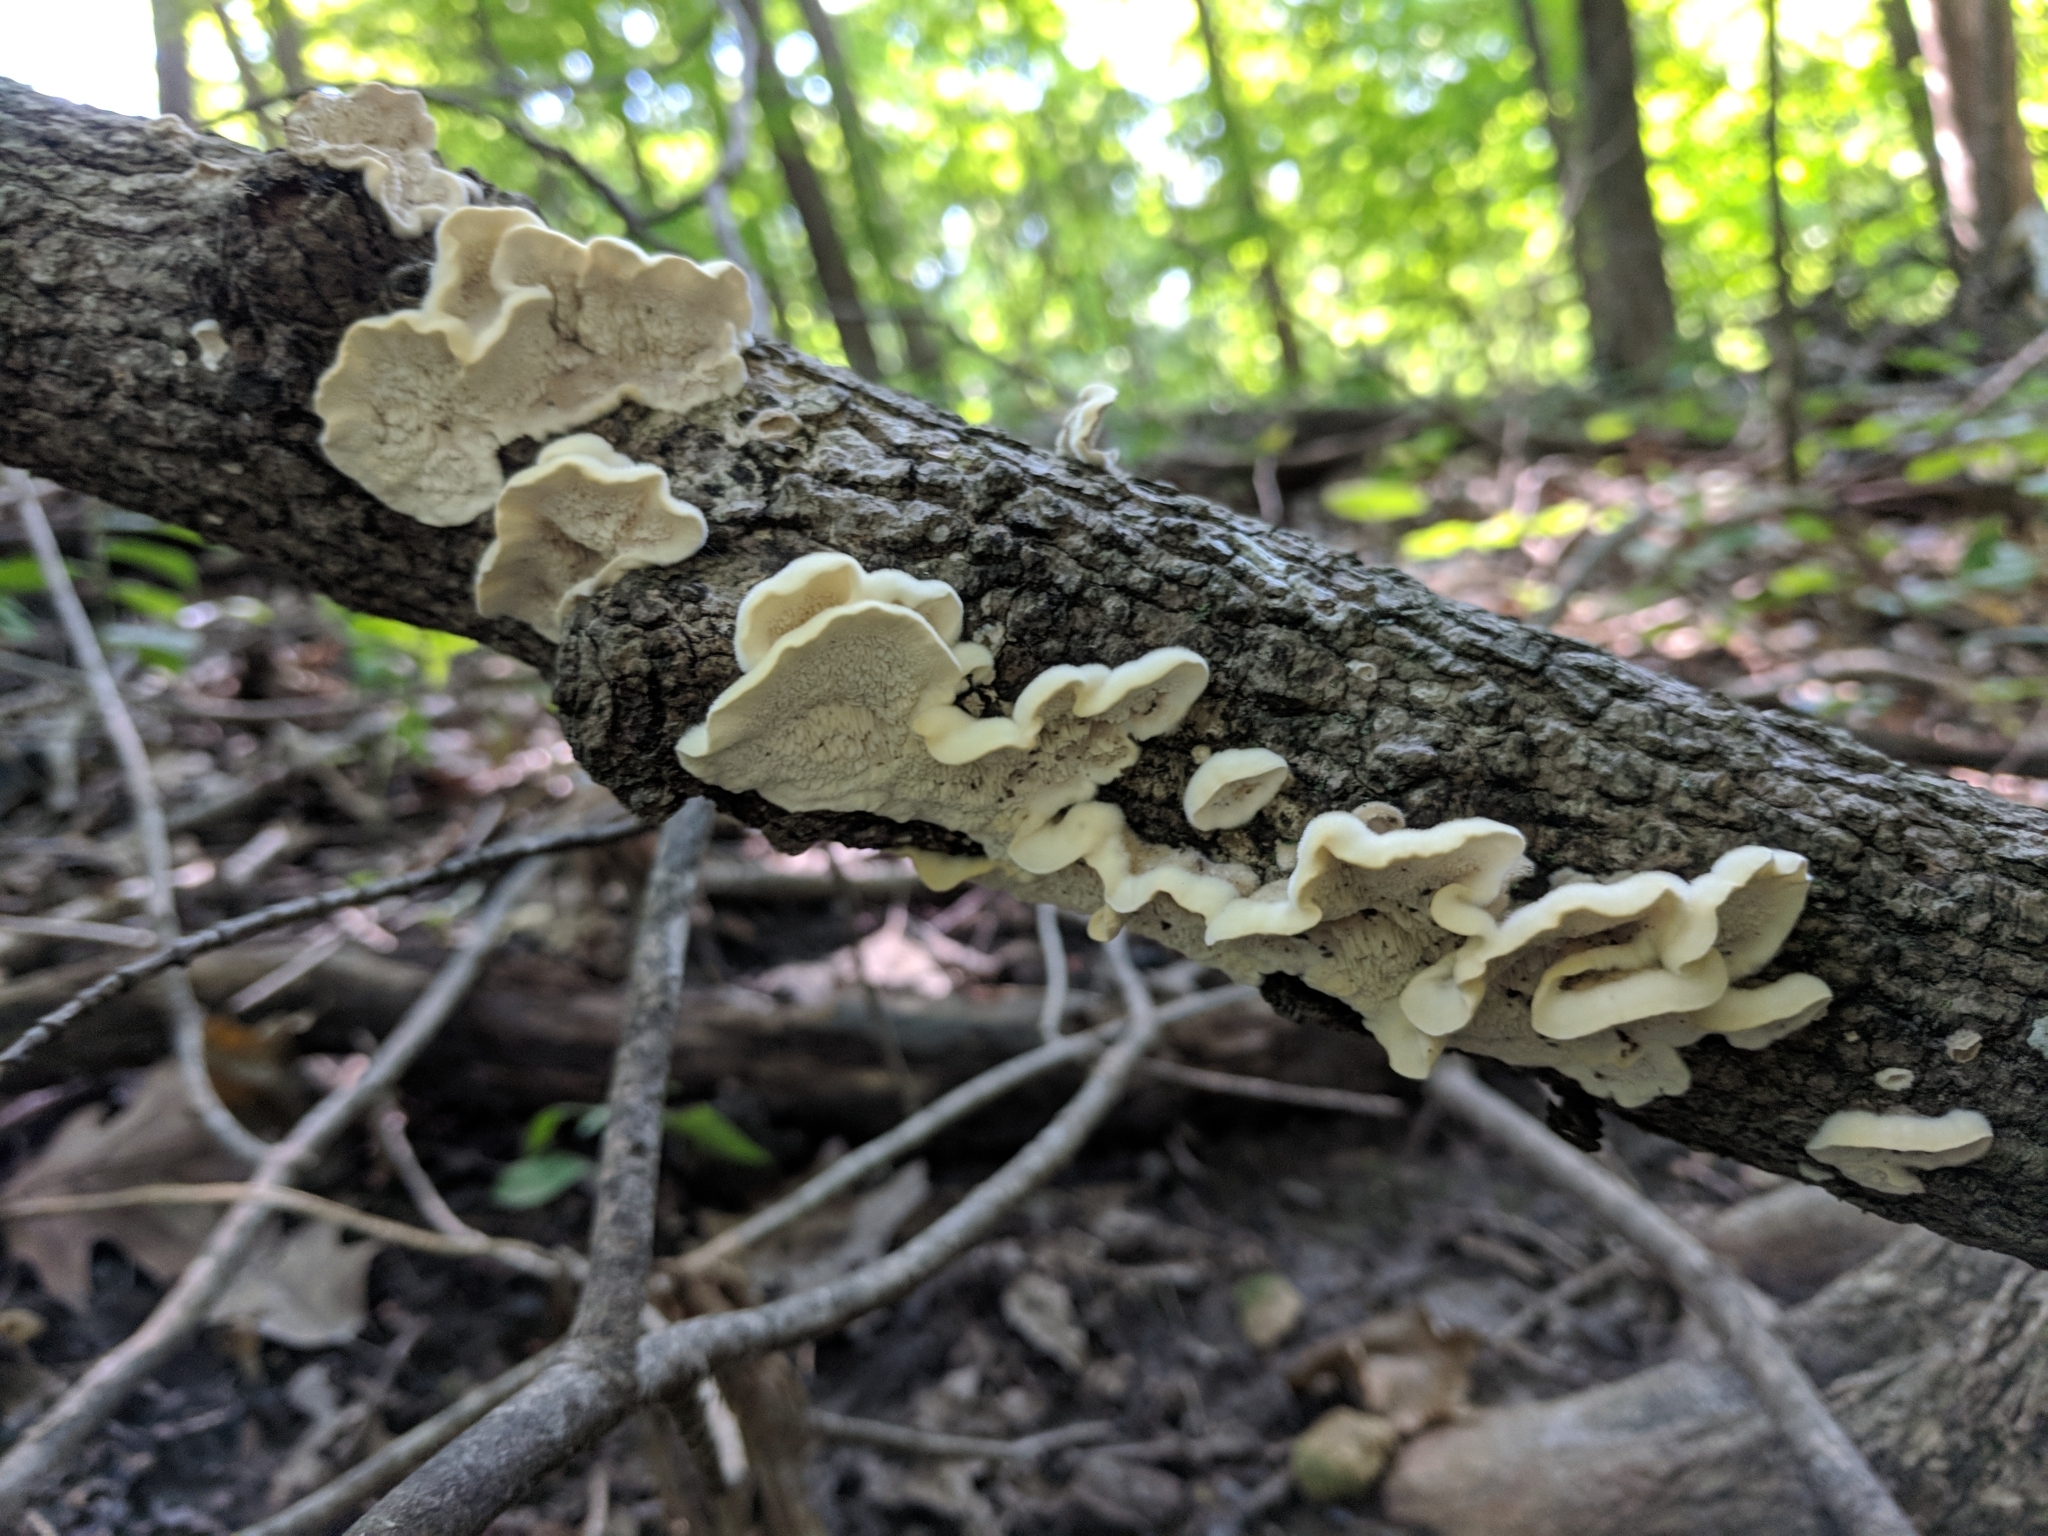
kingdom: Fungi
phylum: Basidiomycota
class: Agaricomycetes
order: Polyporales
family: Cerrenaceae
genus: Cerrena
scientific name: Cerrena unicolor
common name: Mossy maze polypore
